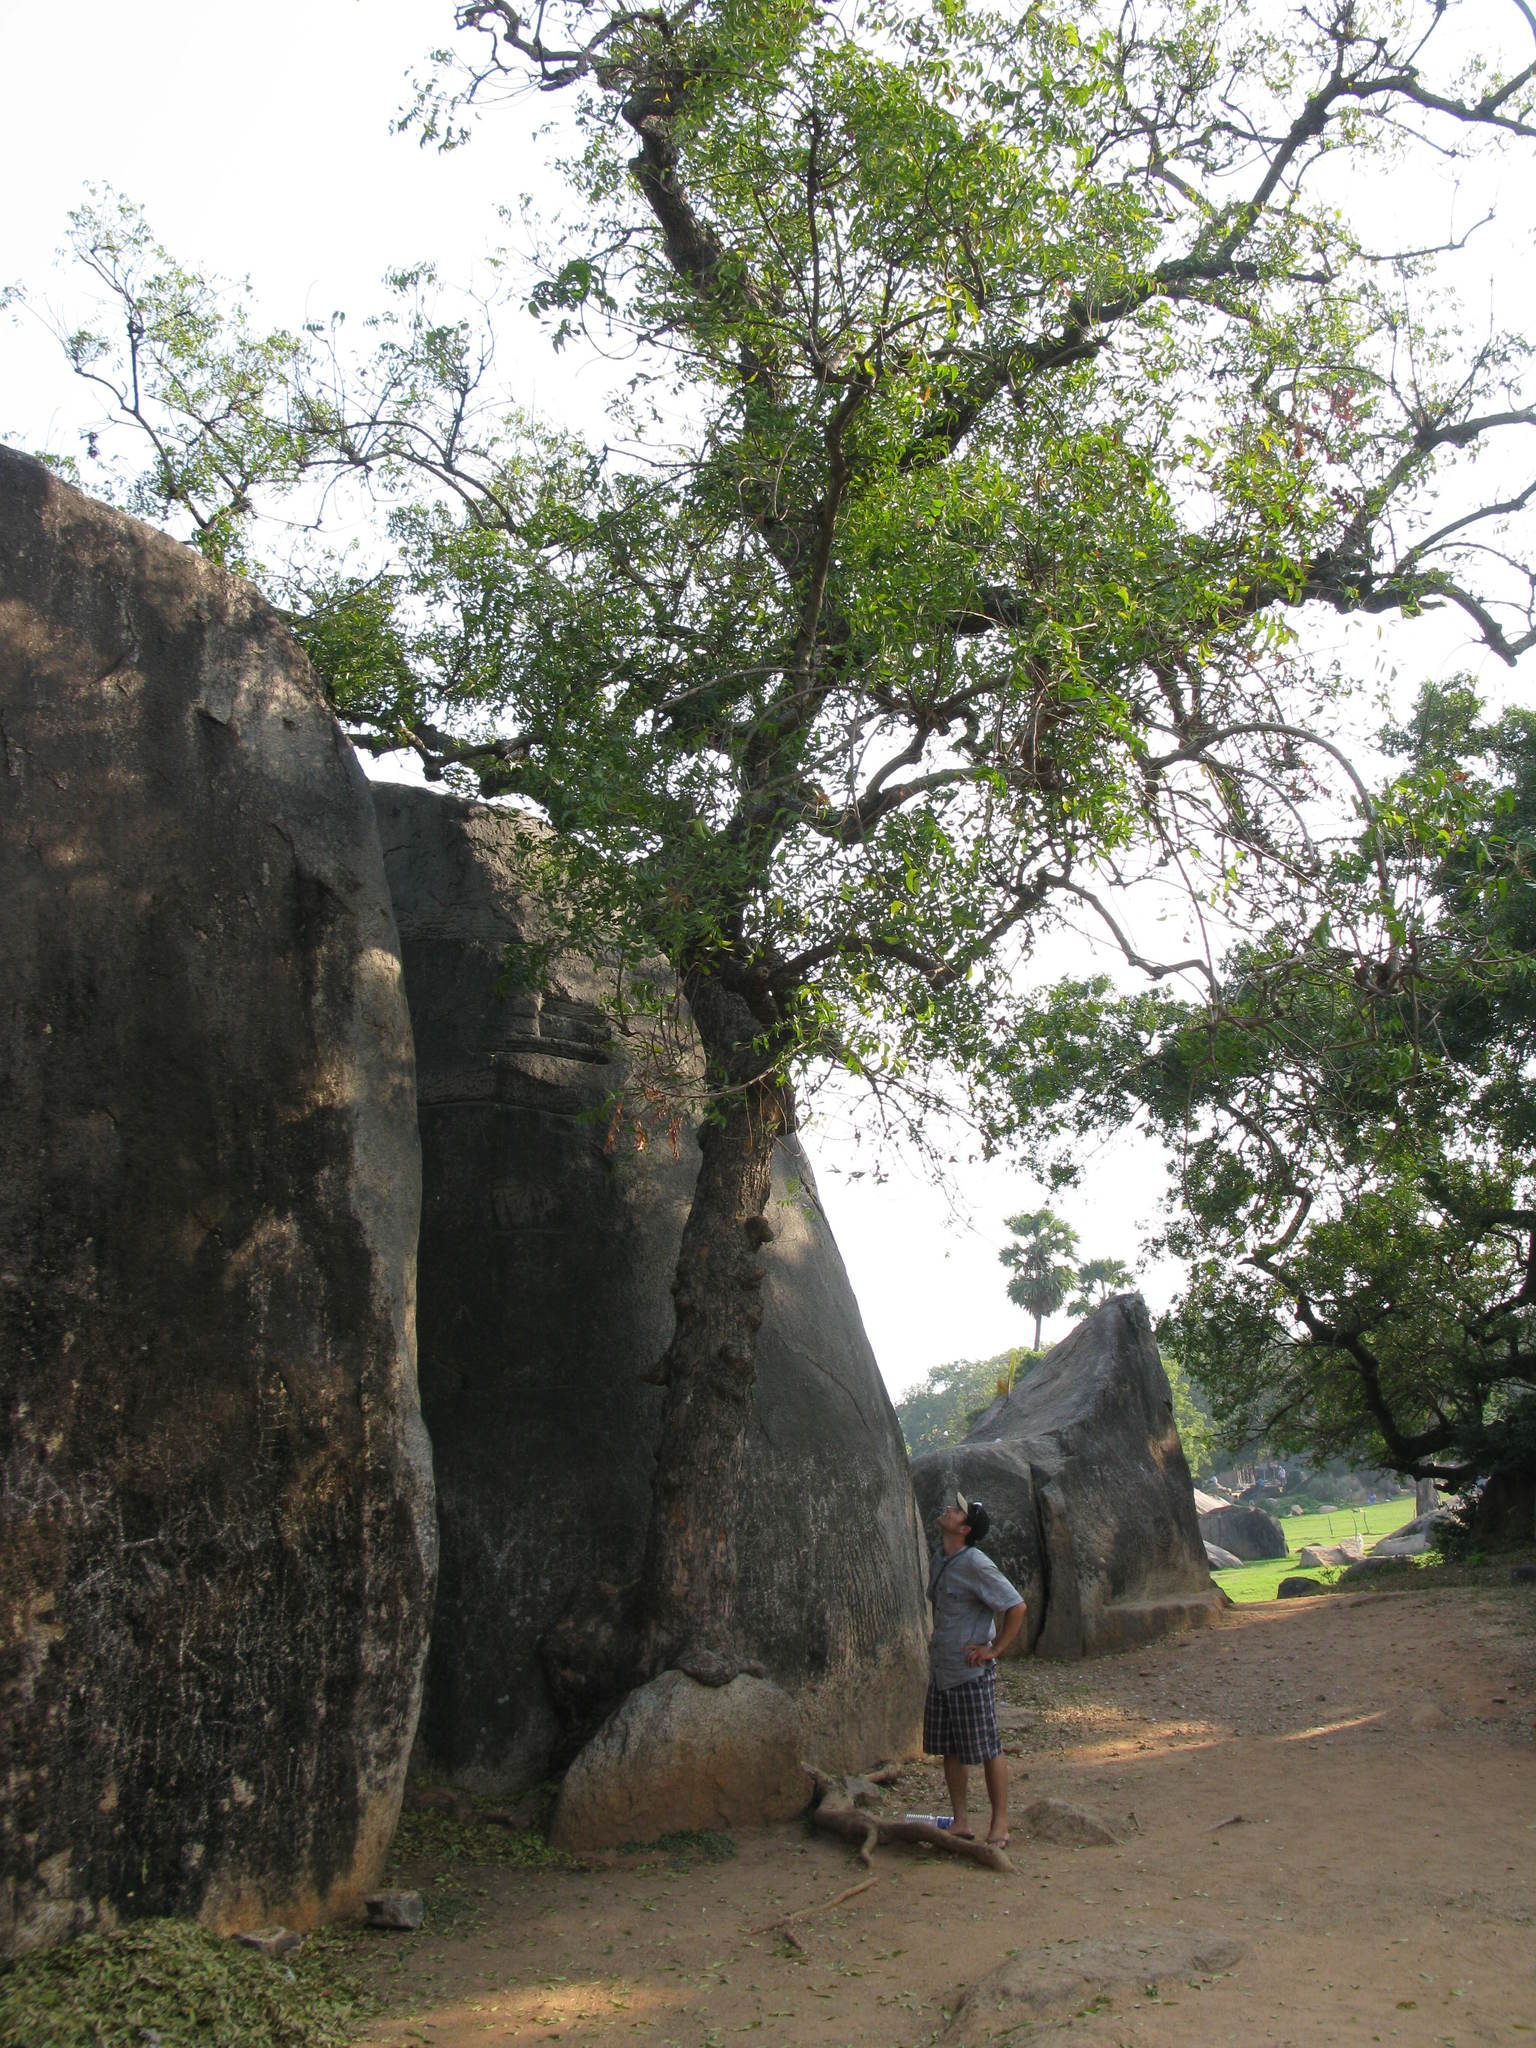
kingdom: Plantae
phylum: Tracheophyta
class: Magnoliopsida
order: Sapindales
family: Meliaceae
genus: Azadirachta
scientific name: Azadirachta indica
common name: Neem
